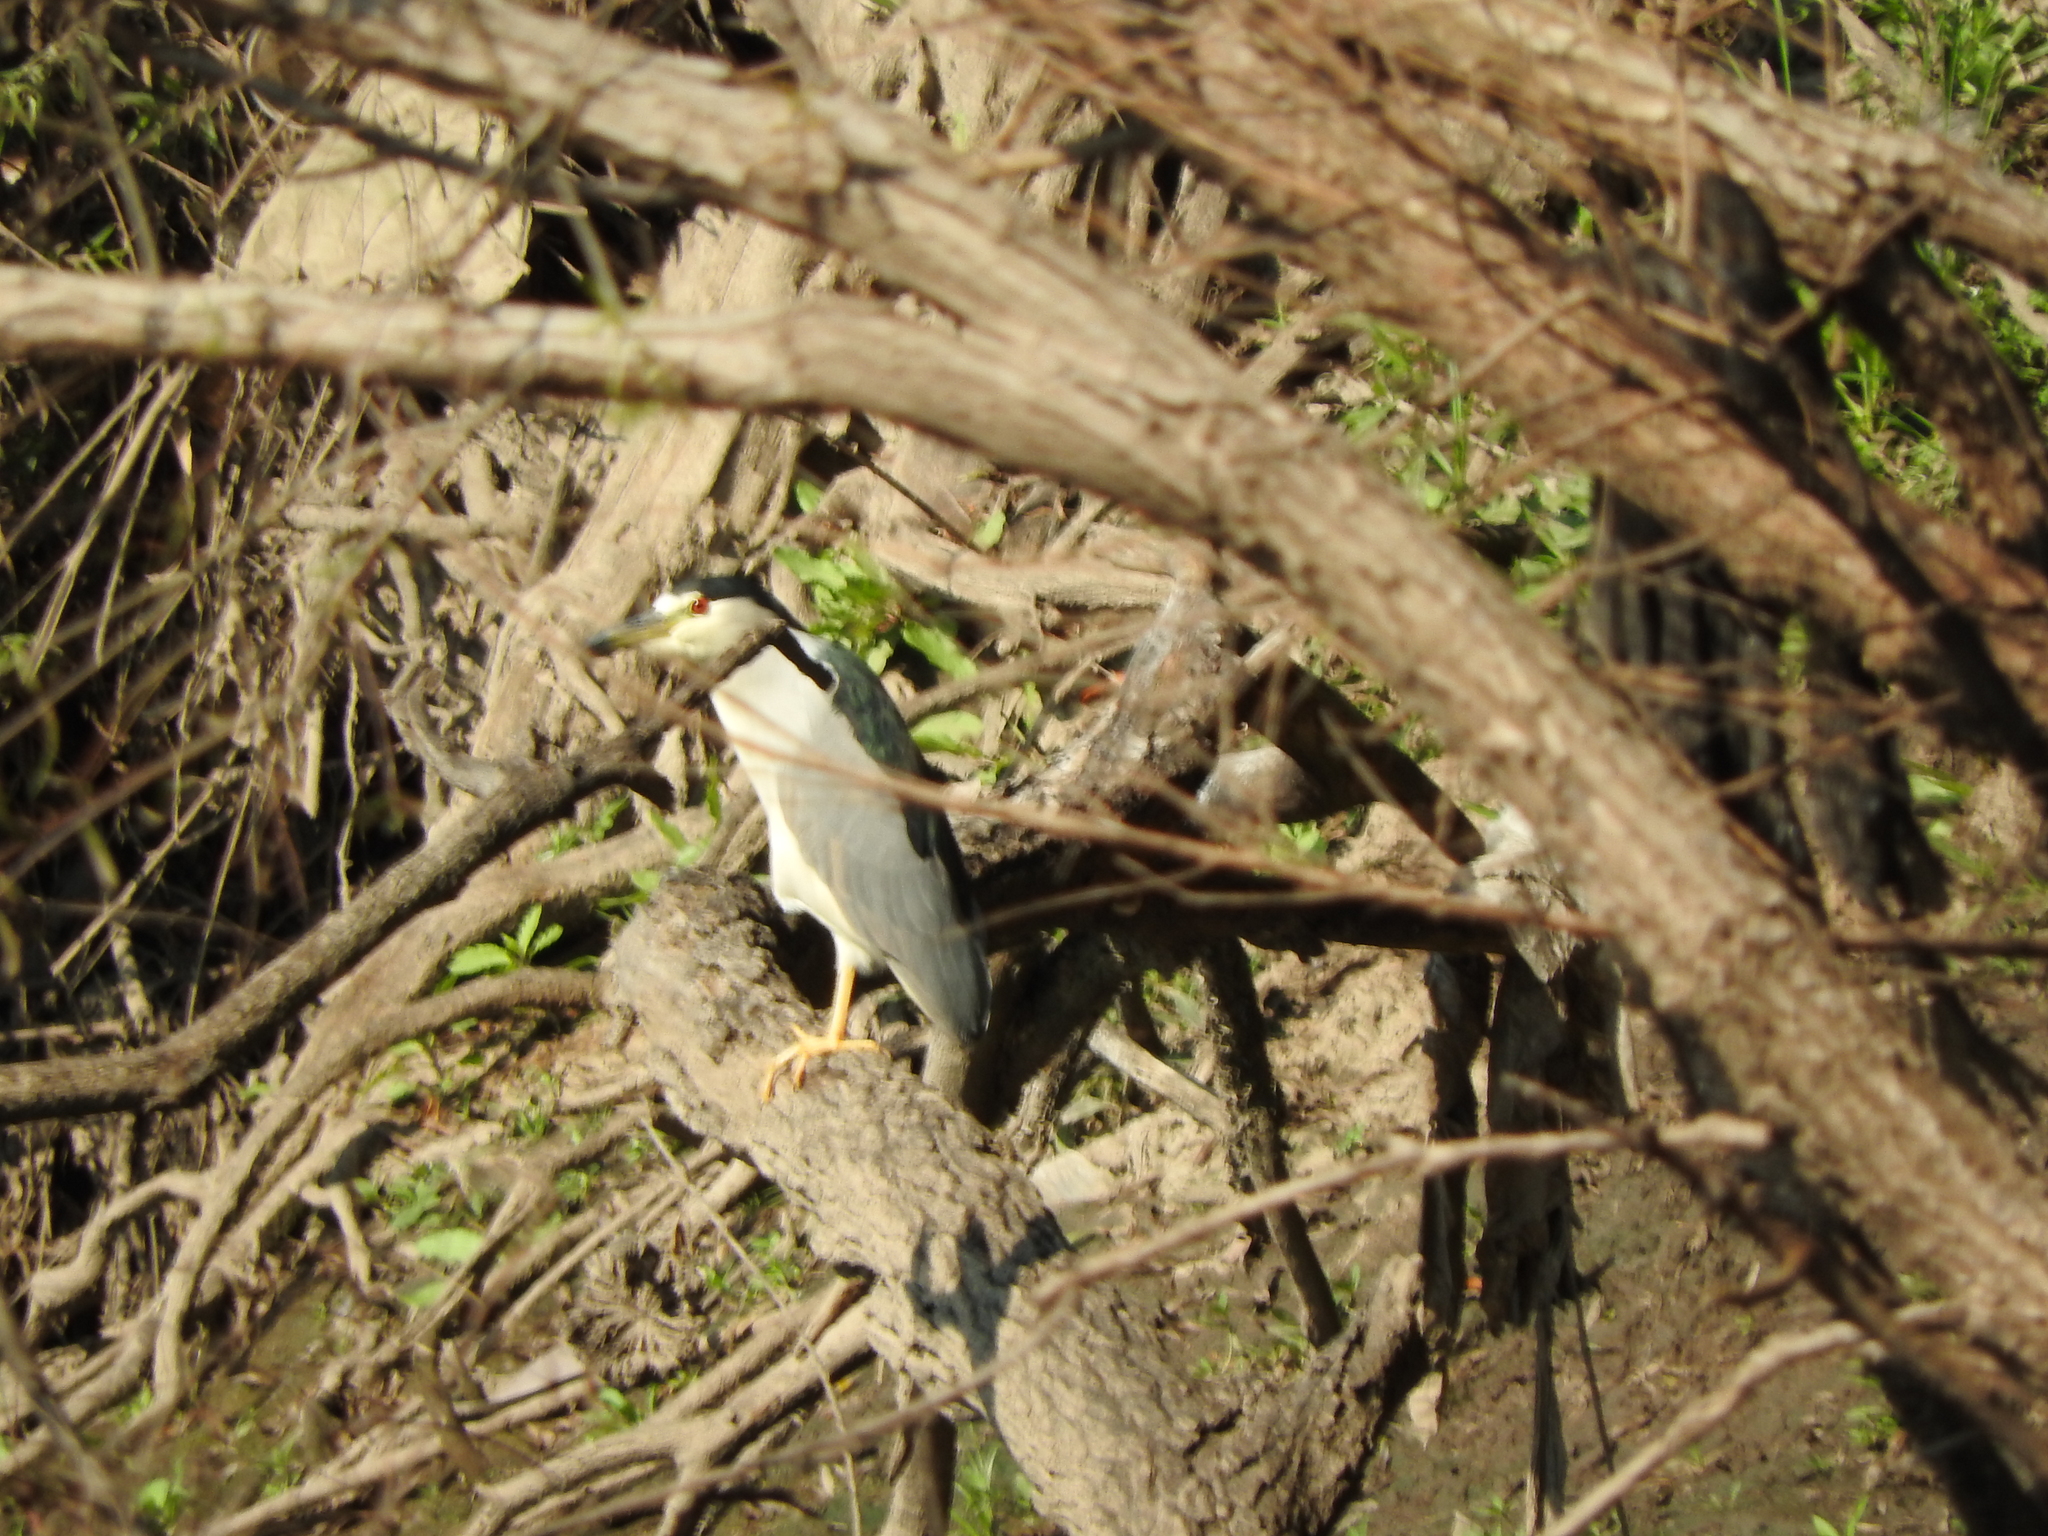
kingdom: Animalia
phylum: Chordata
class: Aves
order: Pelecaniformes
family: Ardeidae
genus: Nycticorax
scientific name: Nycticorax nycticorax
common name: Black-crowned night heron
